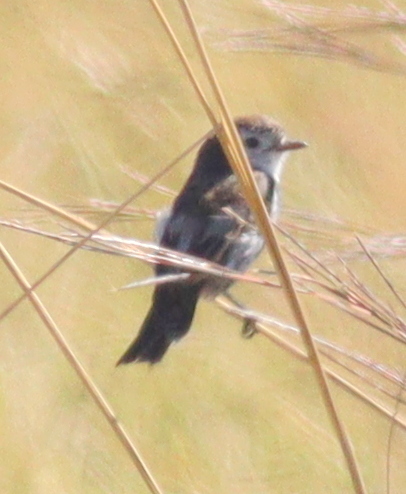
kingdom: Animalia
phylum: Chordata
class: Aves
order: Passeriformes
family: Tyrannidae
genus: Alectrurus
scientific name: Alectrurus tricolor
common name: Cock-tailed tyrant
